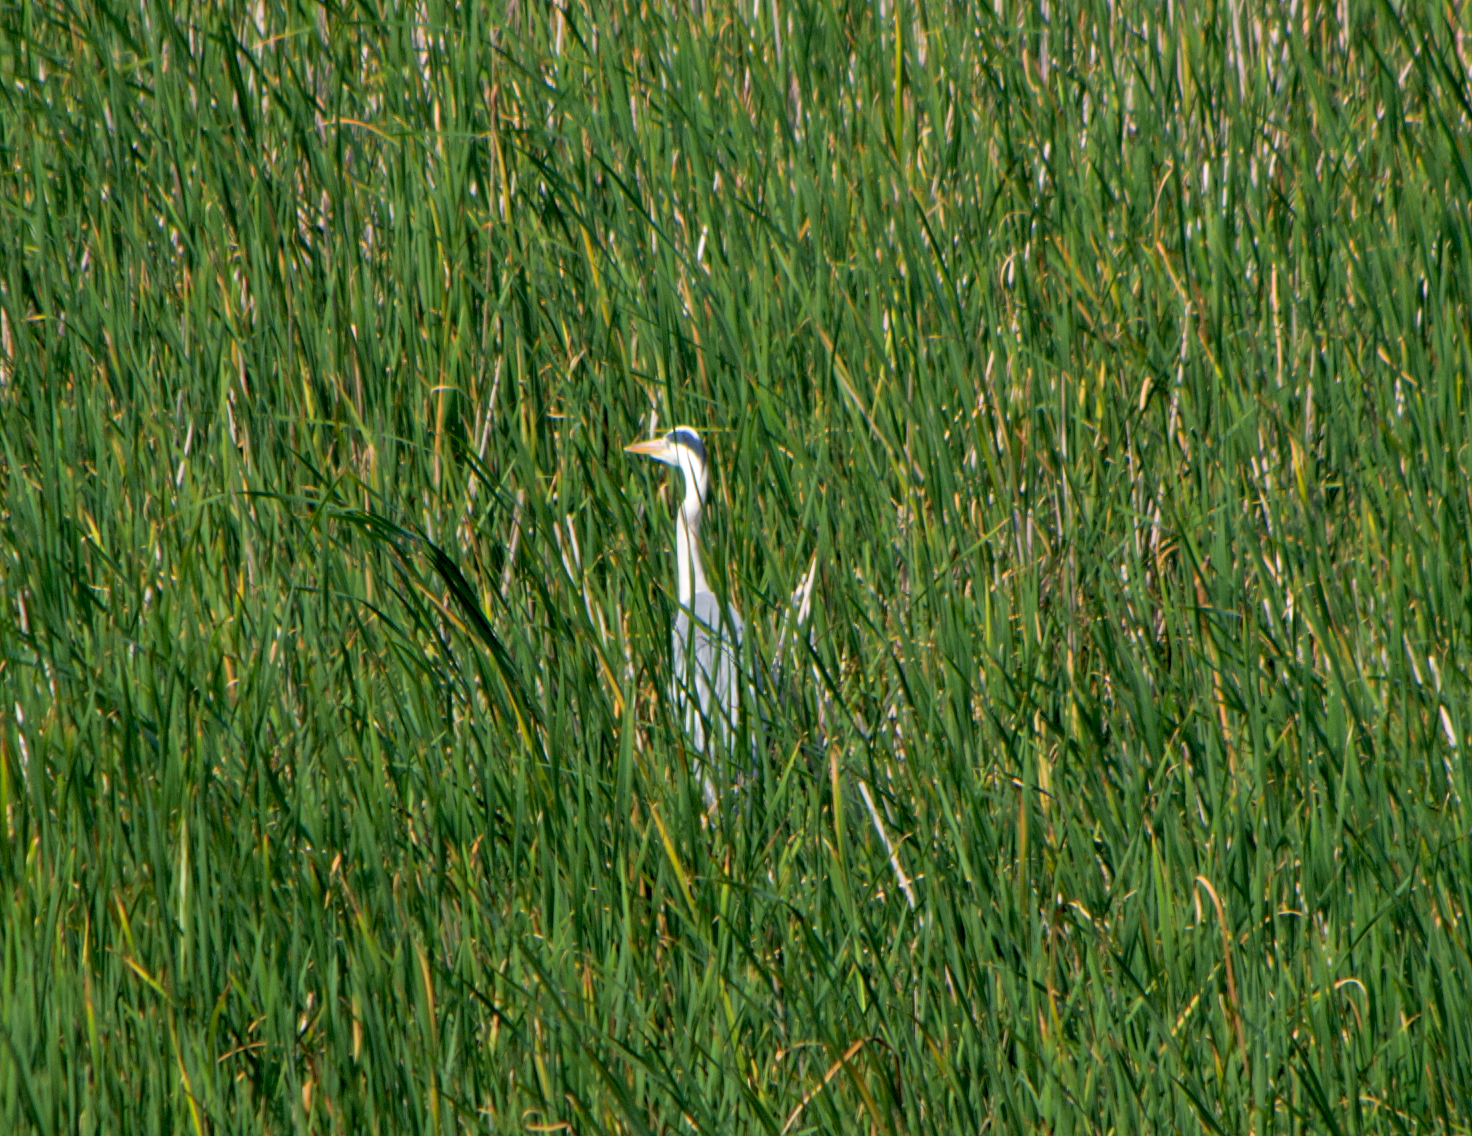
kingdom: Animalia
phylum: Chordata
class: Aves
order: Pelecaniformes
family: Ardeidae
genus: Ardea
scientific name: Ardea cinerea
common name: Grey heron
